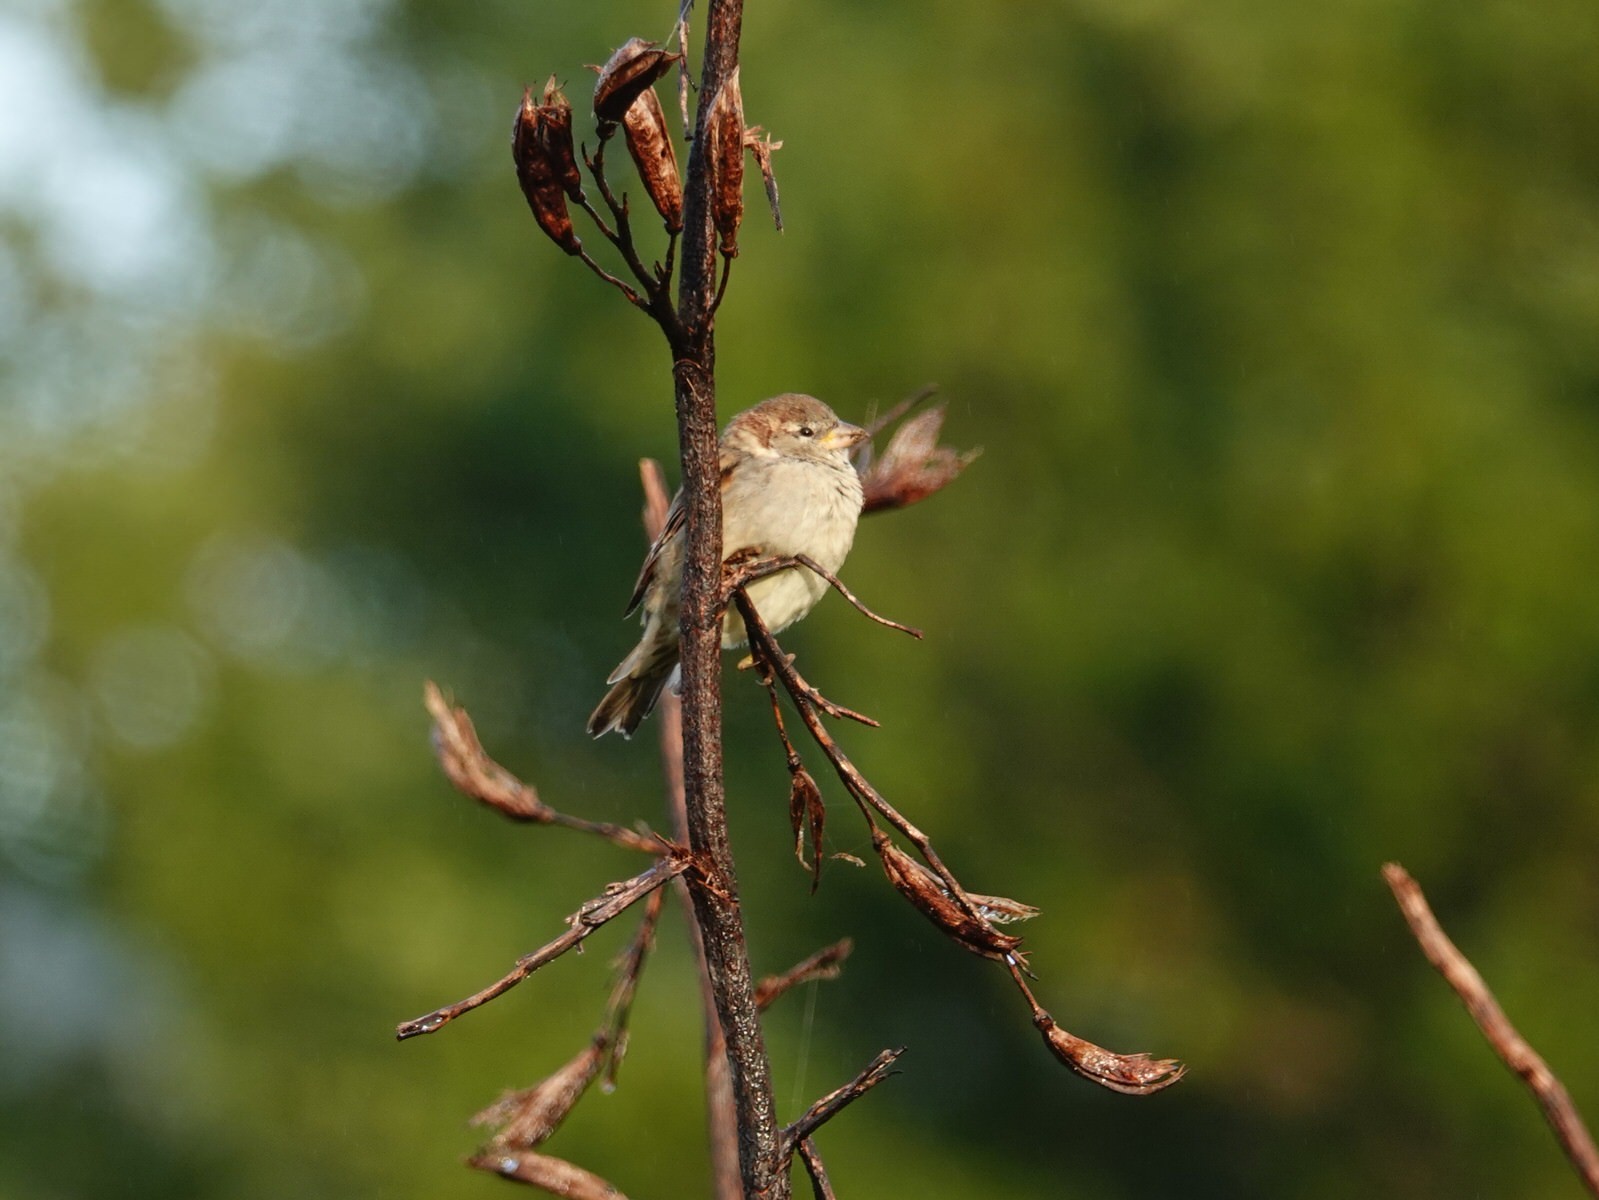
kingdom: Animalia
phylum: Chordata
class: Aves
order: Passeriformes
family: Passeridae
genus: Passer
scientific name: Passer domesticus
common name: House sparrow
